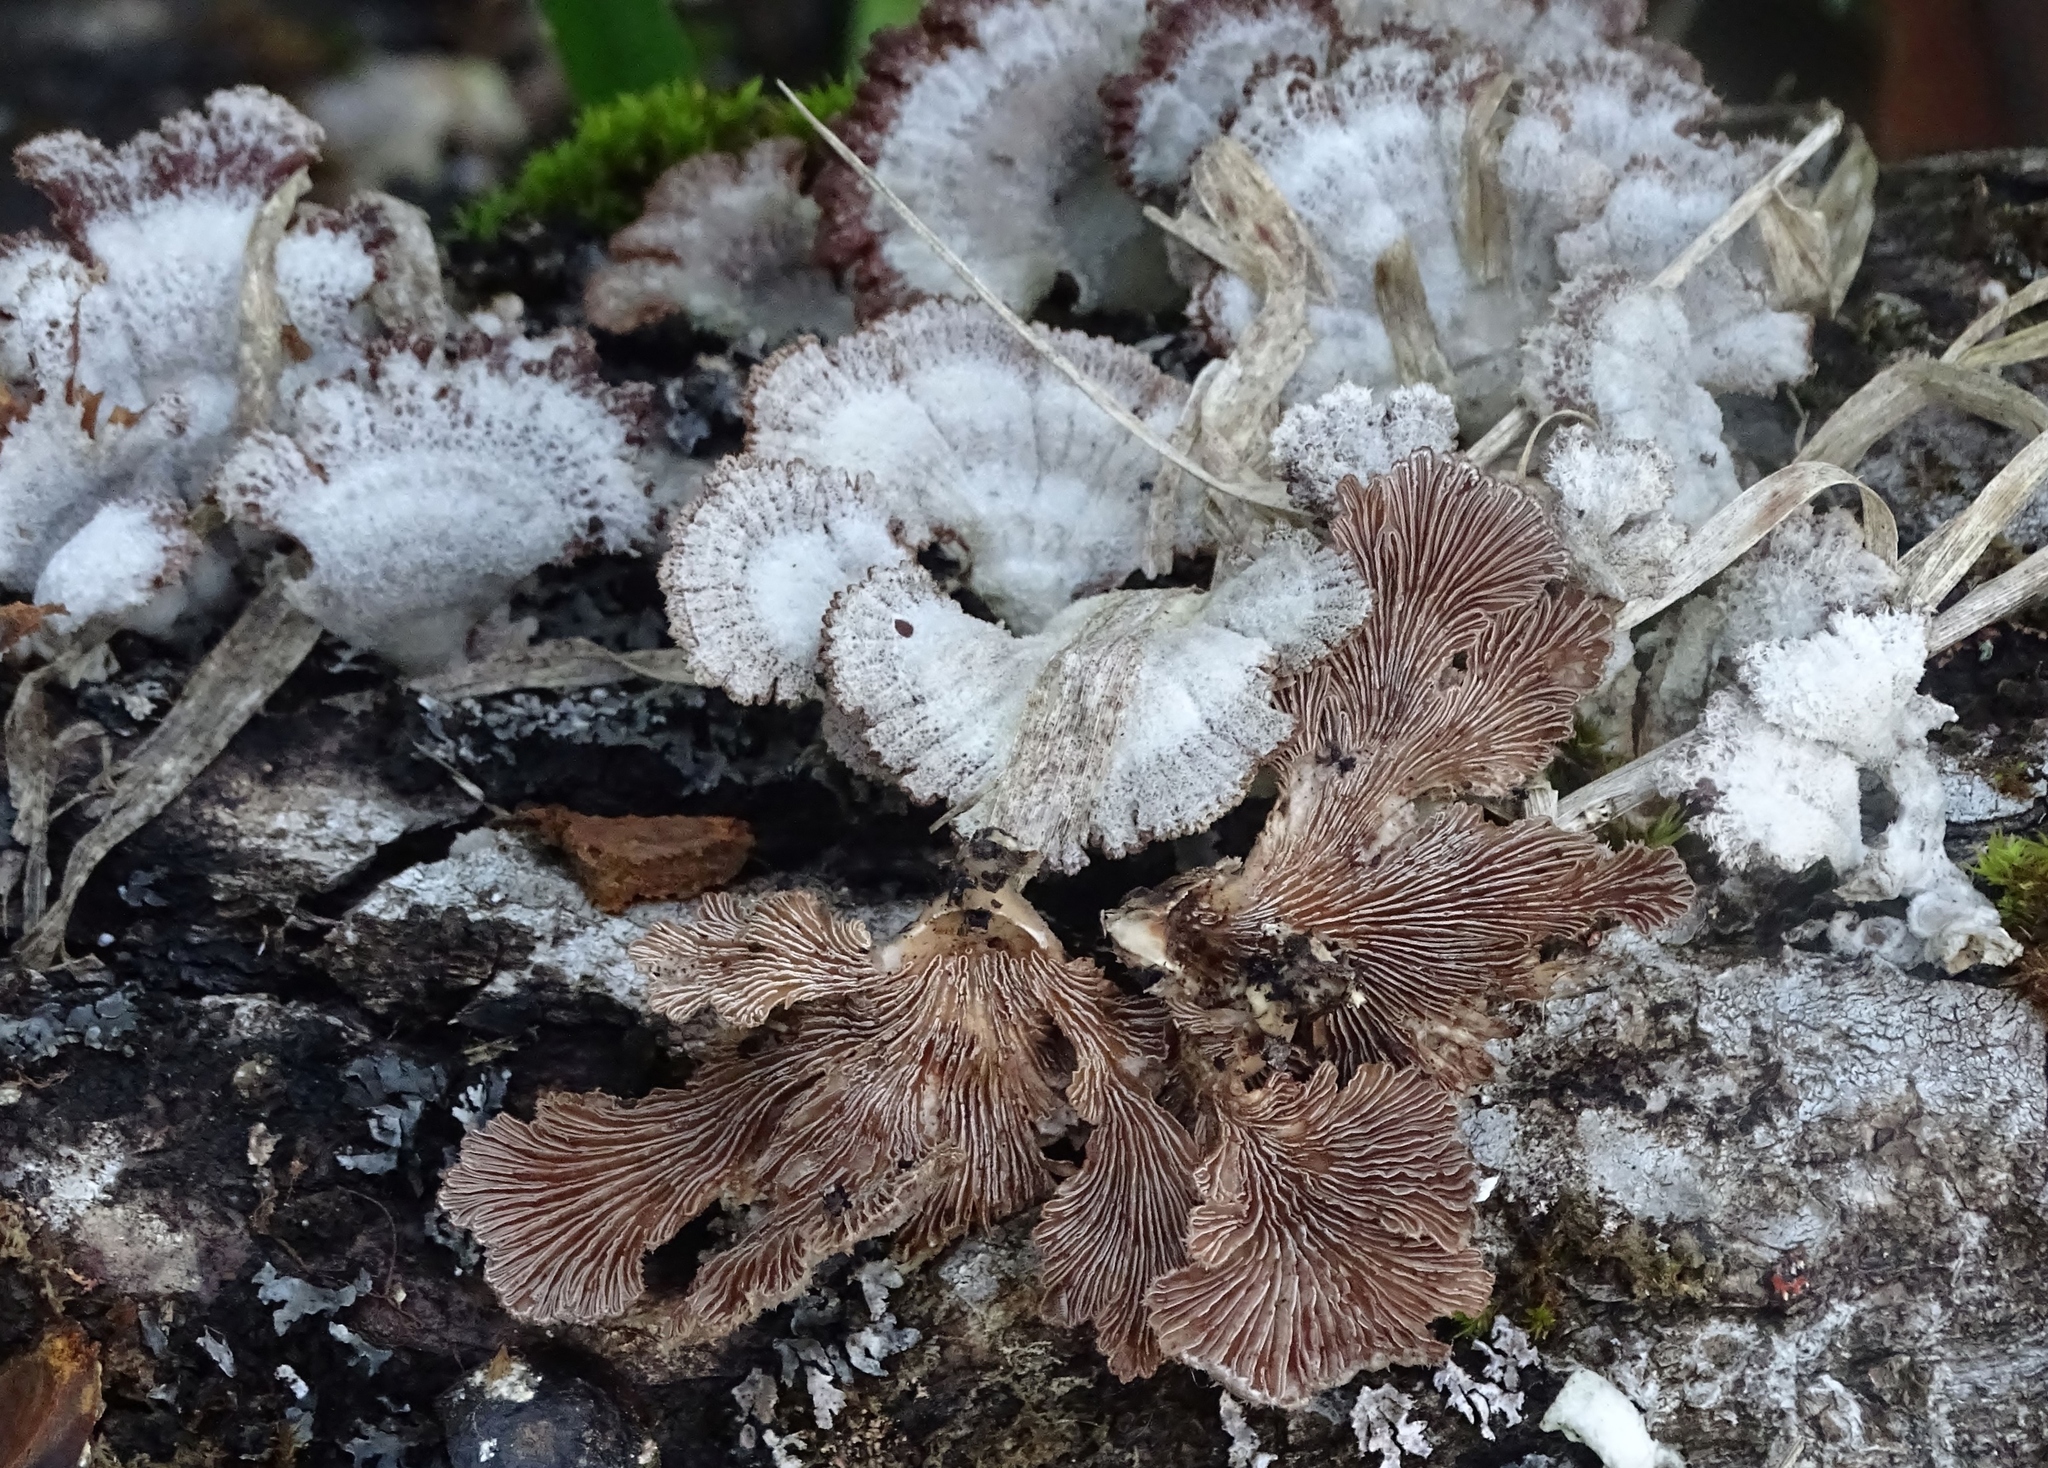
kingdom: Fungi
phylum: Basidiomycota
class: Agaricomycetes
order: Agaricales
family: Schizophyllaceae
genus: Schizophyllum
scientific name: Schizophyllum commune
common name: Common porecrust
